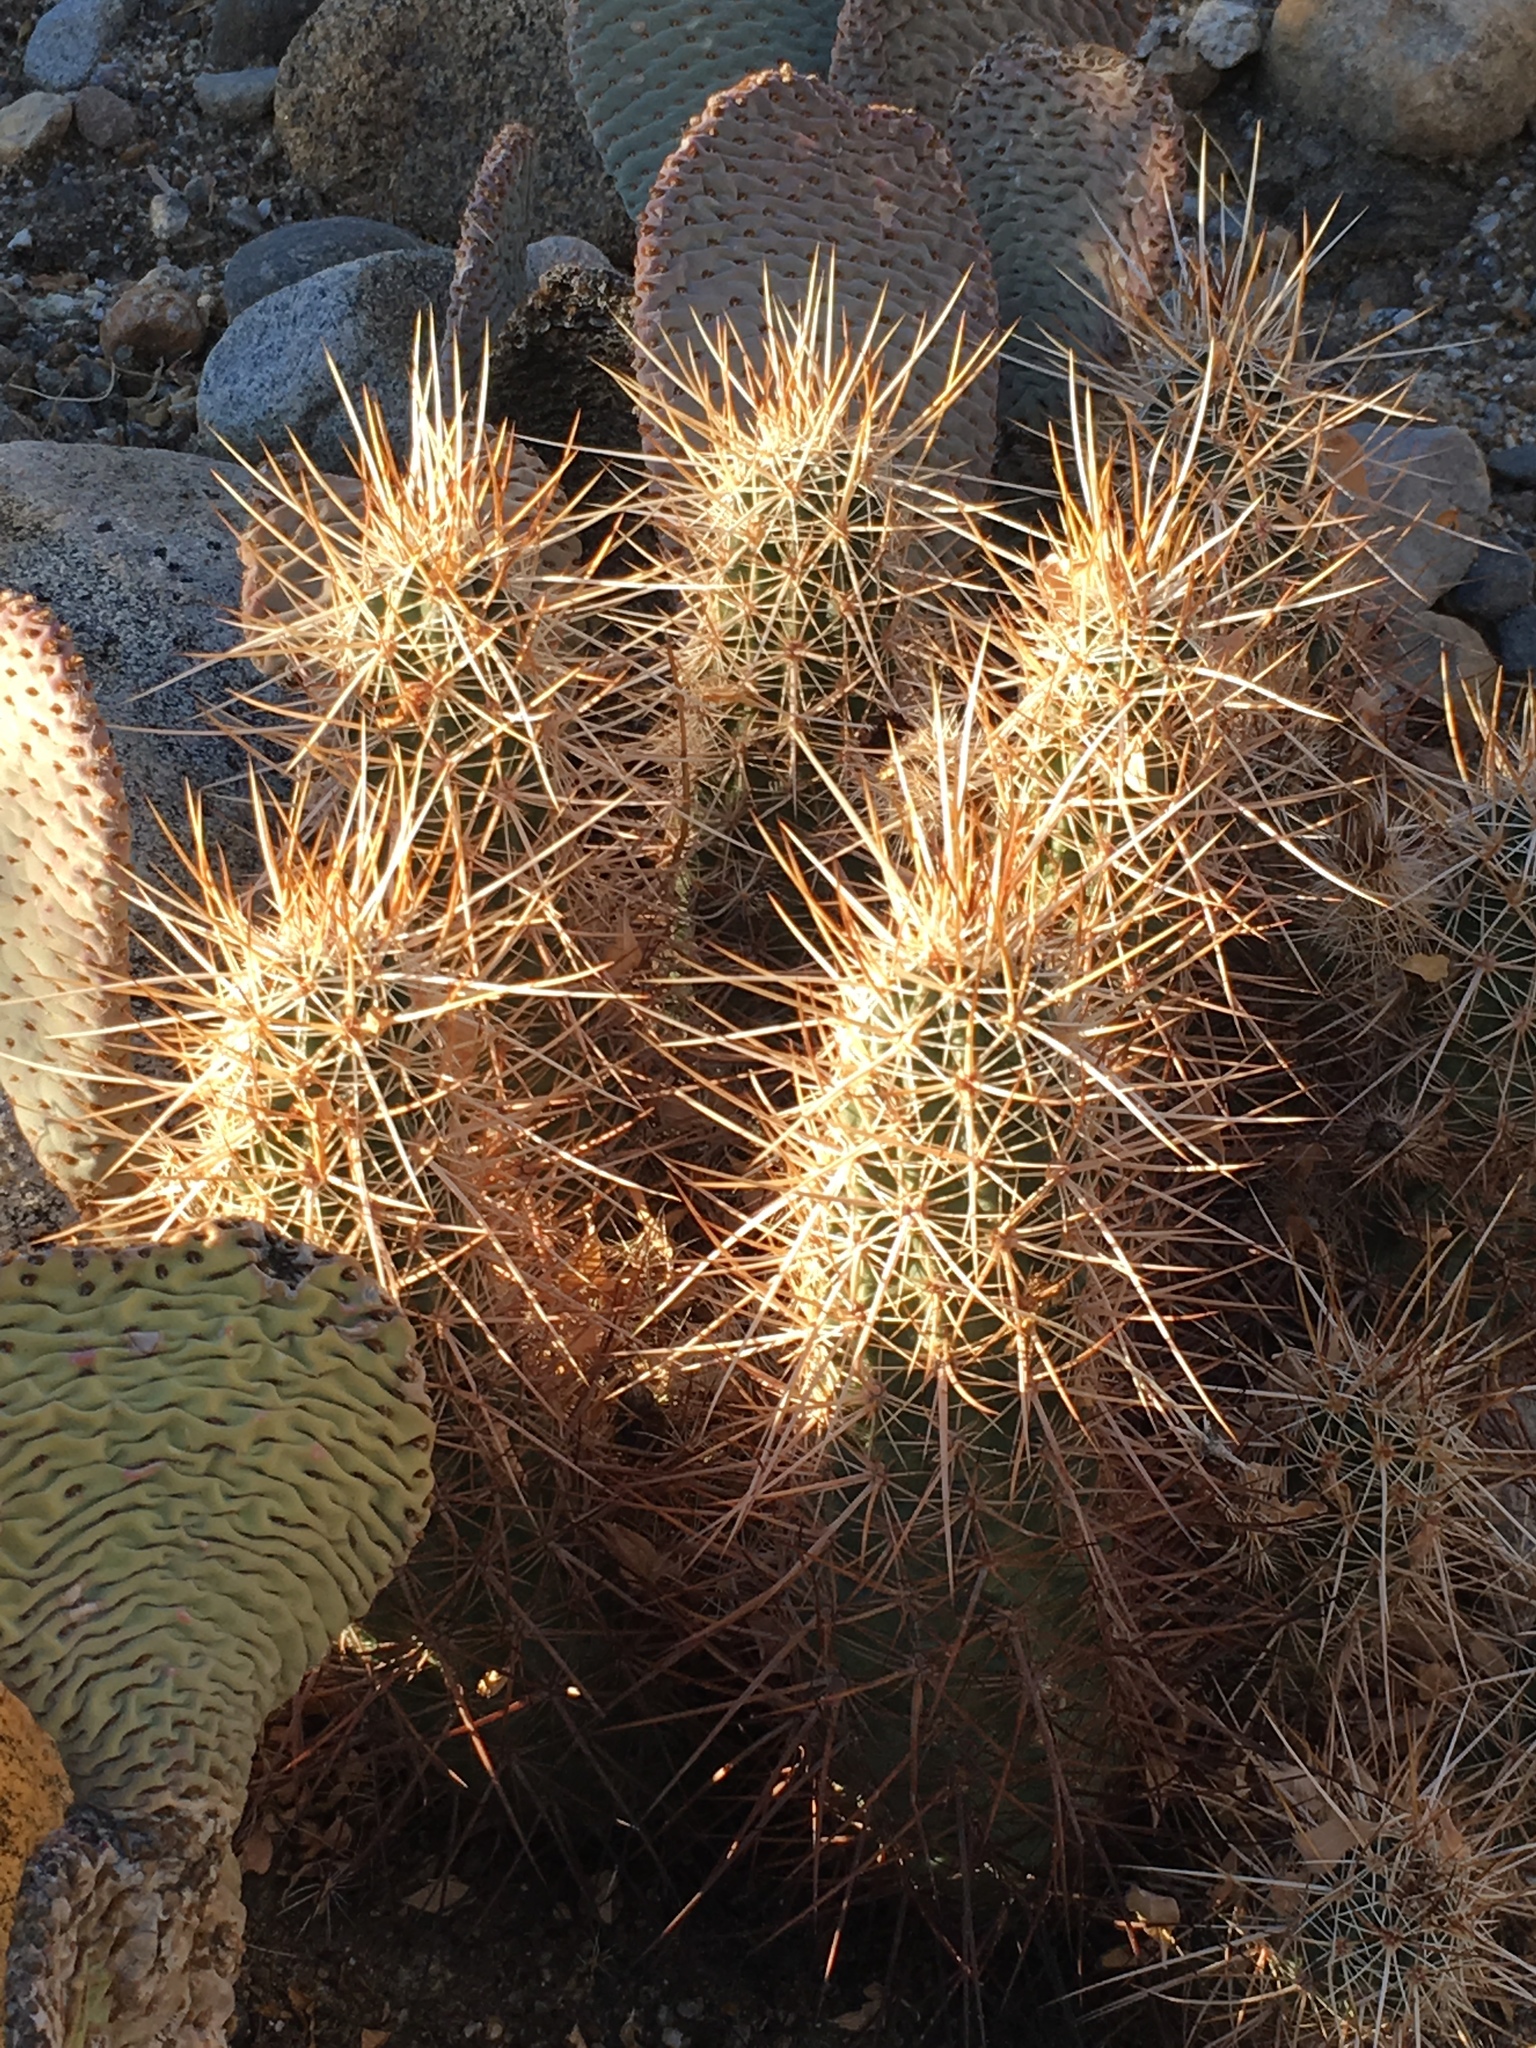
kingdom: Plantae
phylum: Tracheophyta
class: Magnoliopsida
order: Caryophyllales
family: Cactaceae
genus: Echinocereus
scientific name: Echinocereus engelmannii
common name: Engelmann's hedgehog cactus
